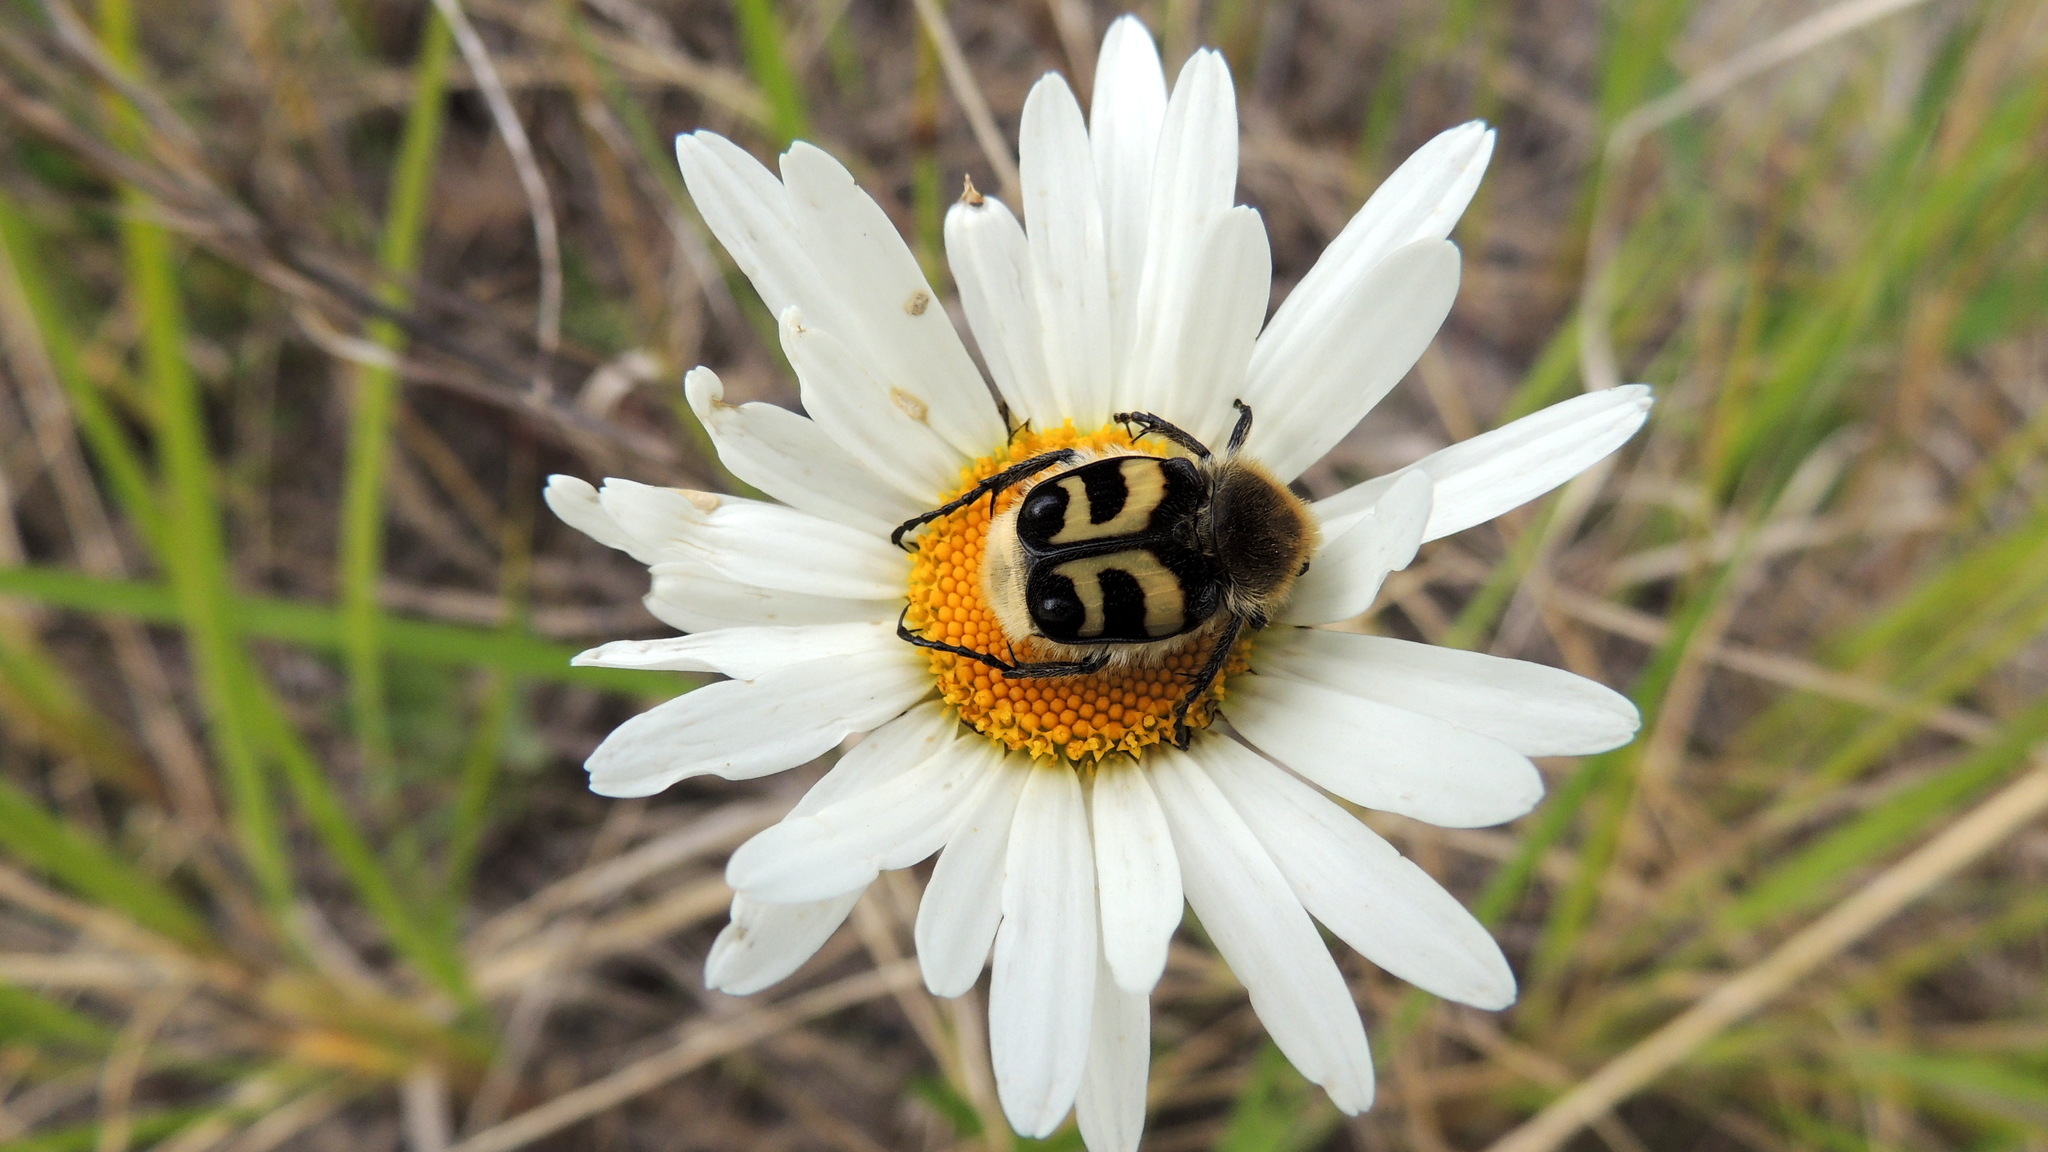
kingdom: Animalia
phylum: Arthropoda
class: Insecta
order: Coleoptera
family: Scarabaeidae
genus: Trichius
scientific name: Trichius fasciatus
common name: Bee beetle
